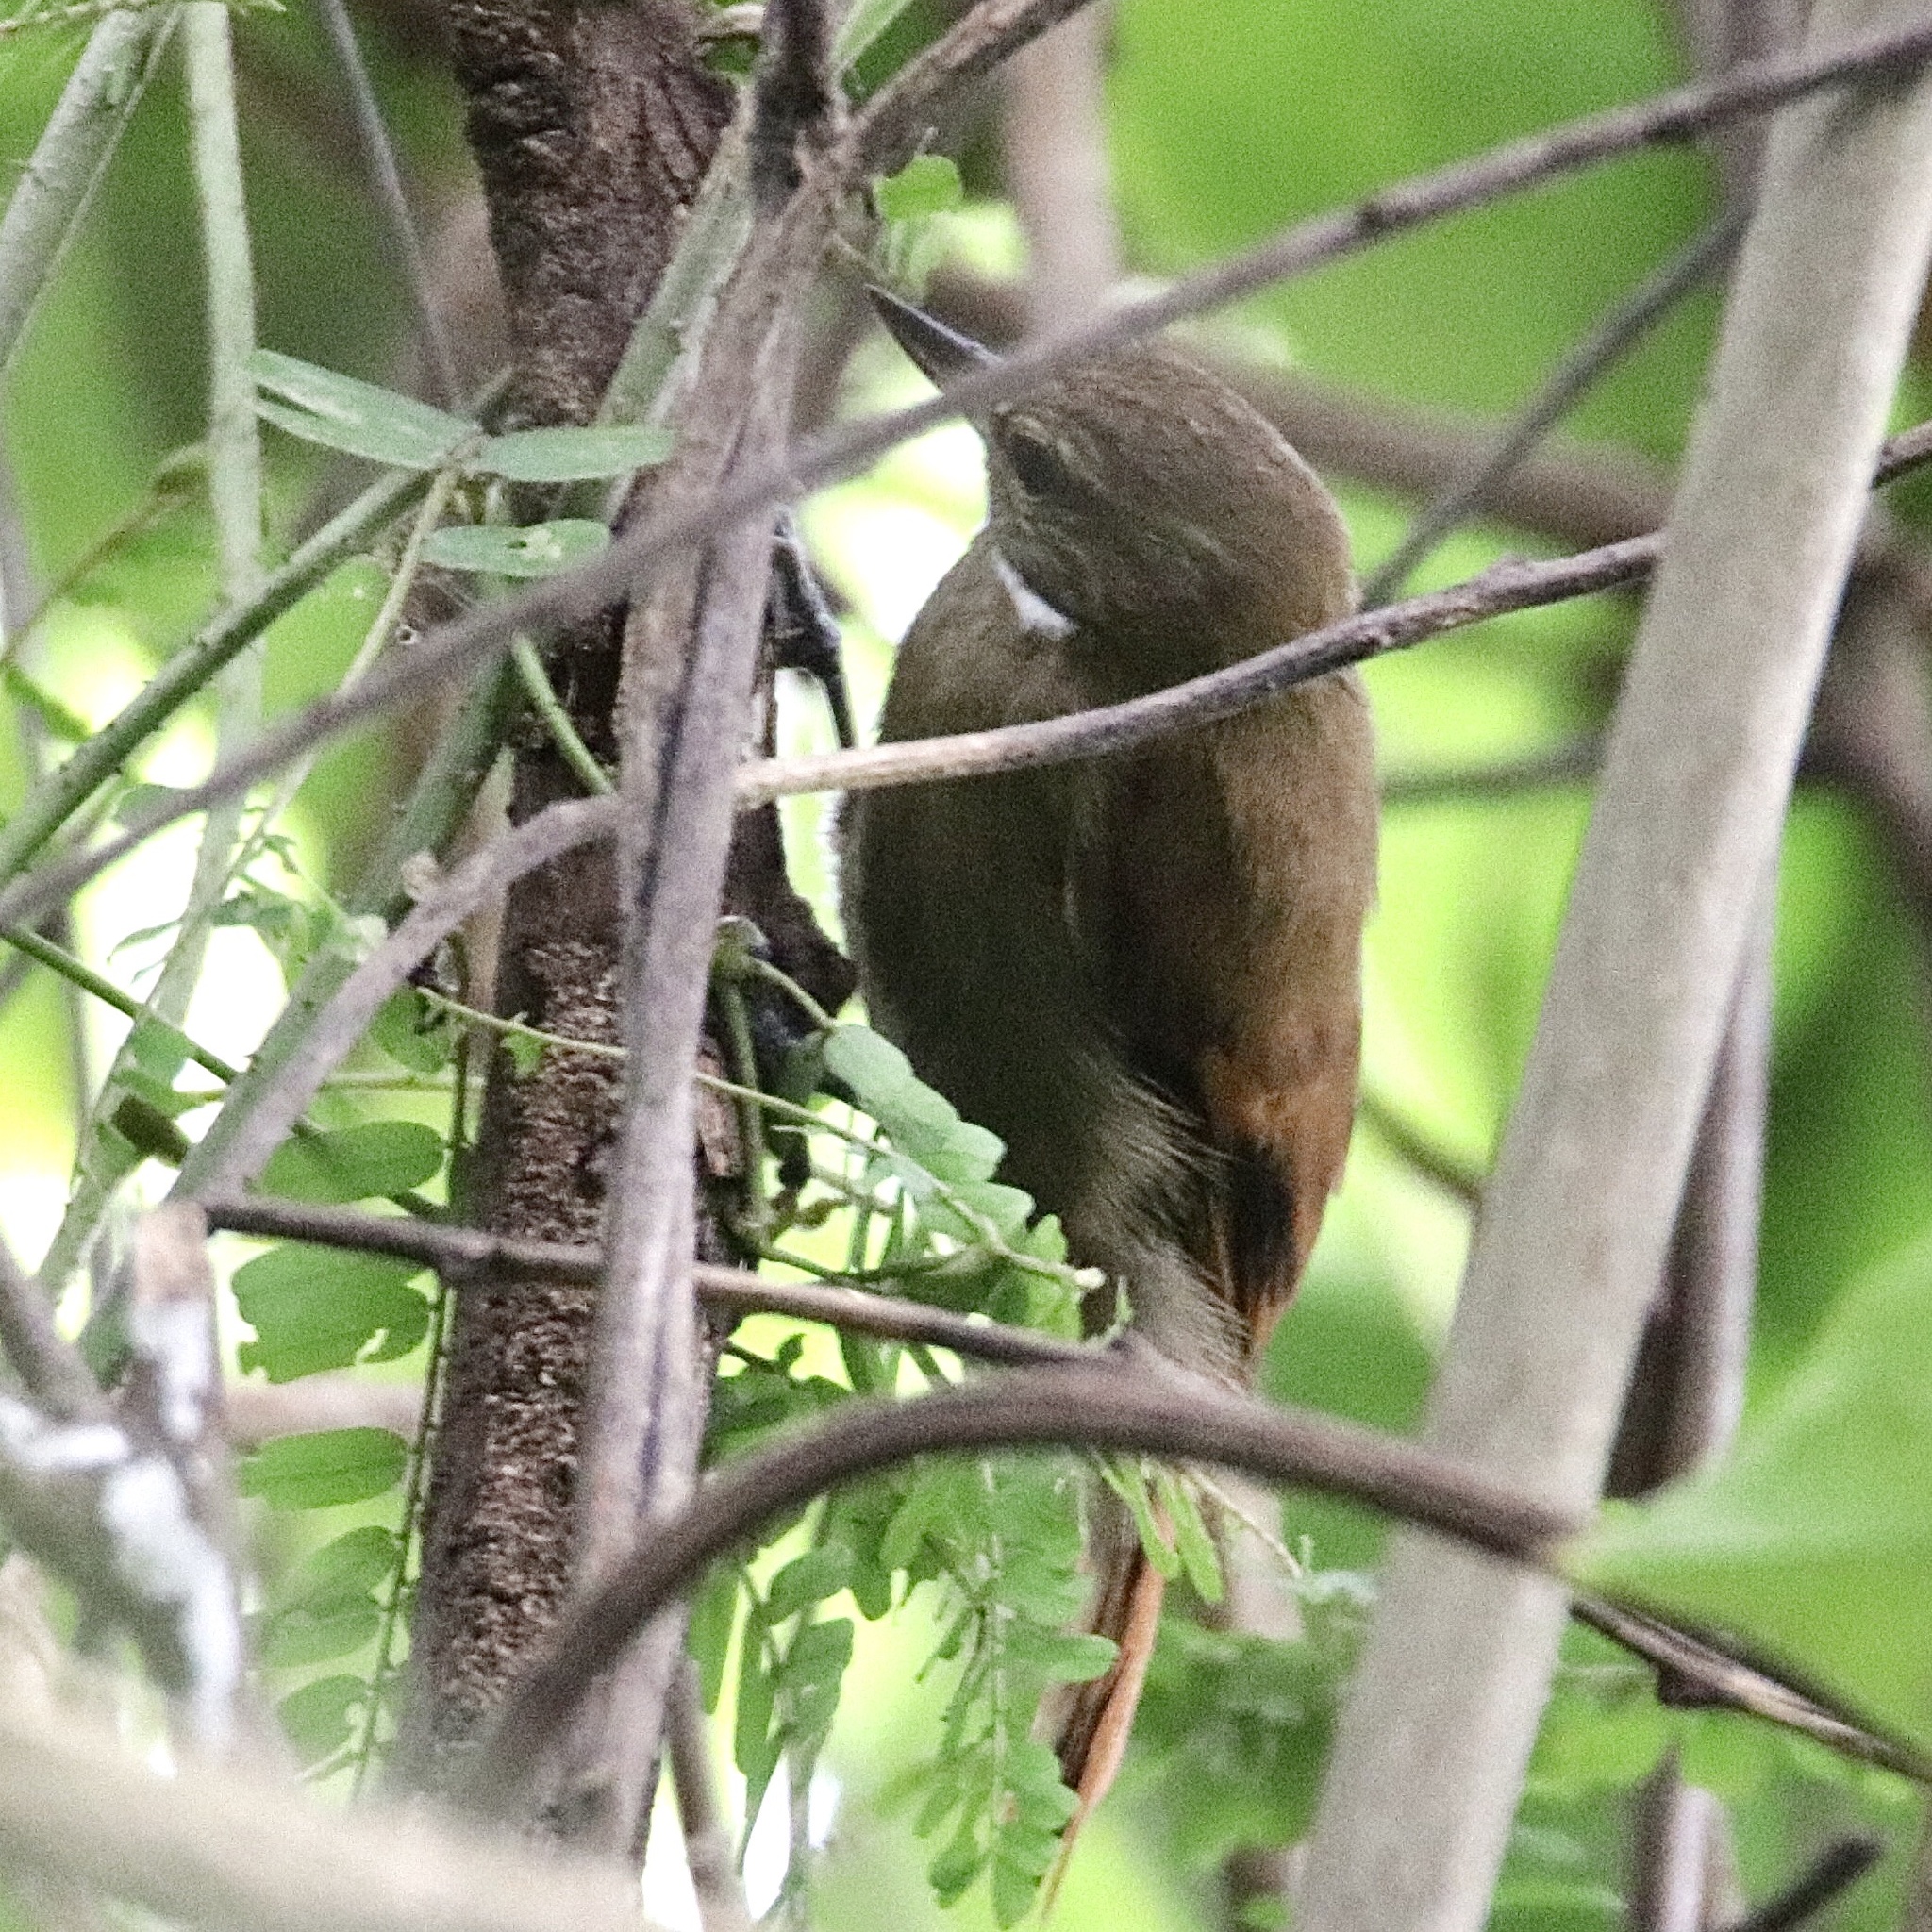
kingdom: Animalia
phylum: Chordata
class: Aves
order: Passeriformes
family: Furnariidae
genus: Xenops
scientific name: Xenops minutus
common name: Plain xenops
